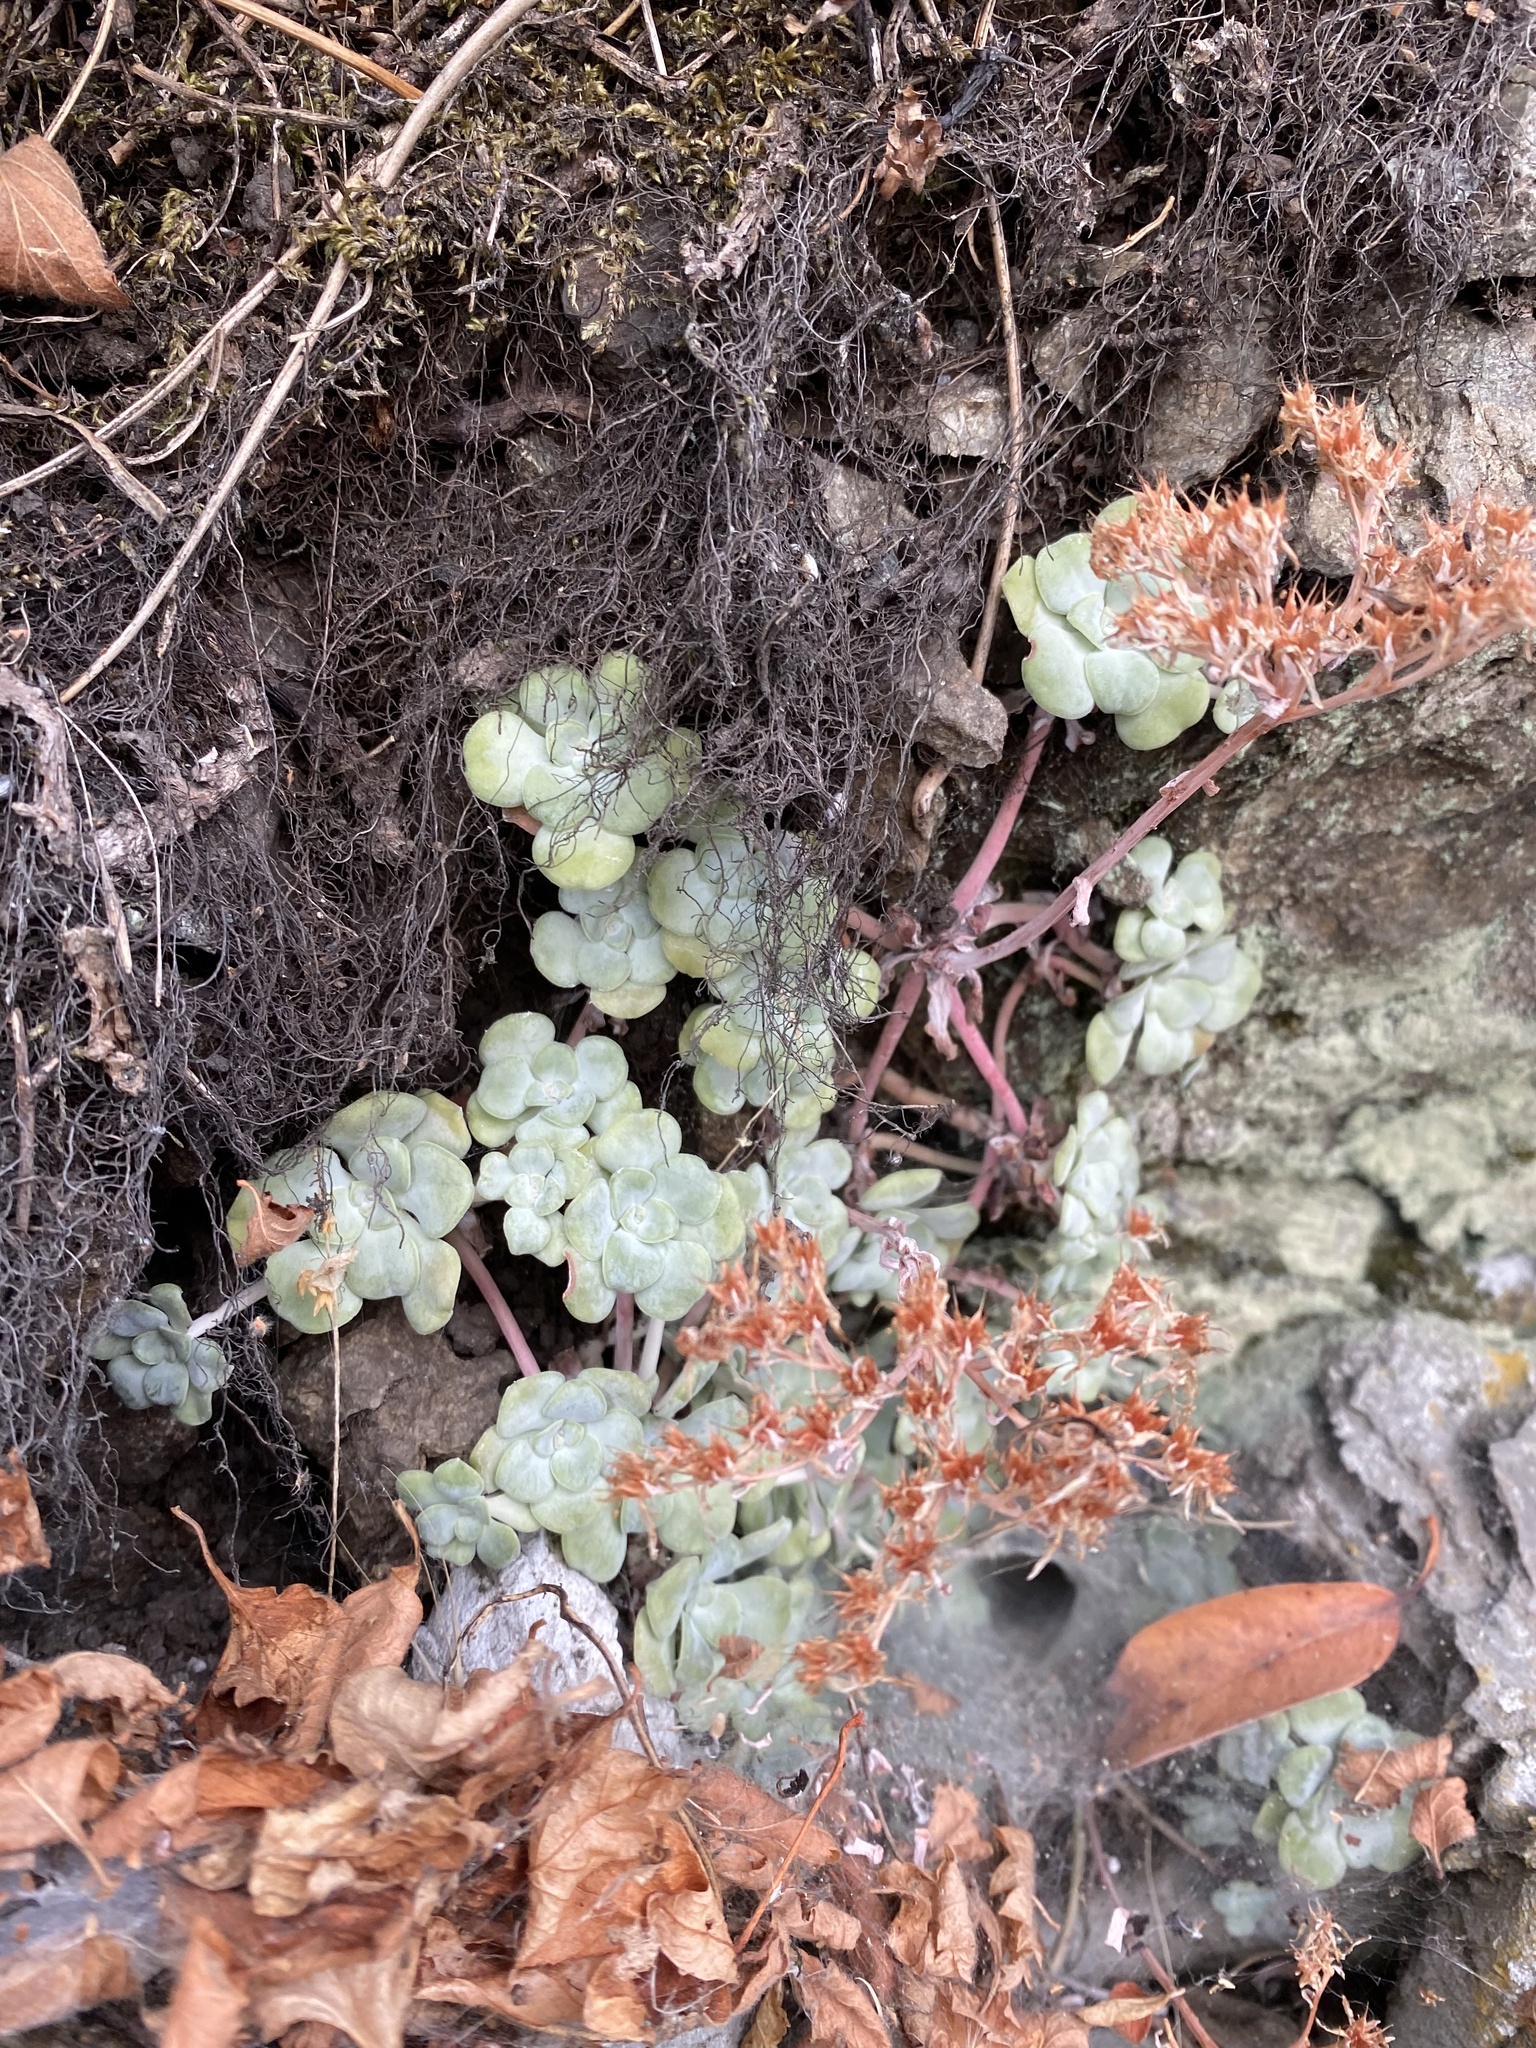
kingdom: Plantae
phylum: Tracheophyta
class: Magnoliopsida
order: Saxifragales
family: Crassulaceae
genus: Sedum
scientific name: Sedum spathulifolium
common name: Colorado stonecrop
